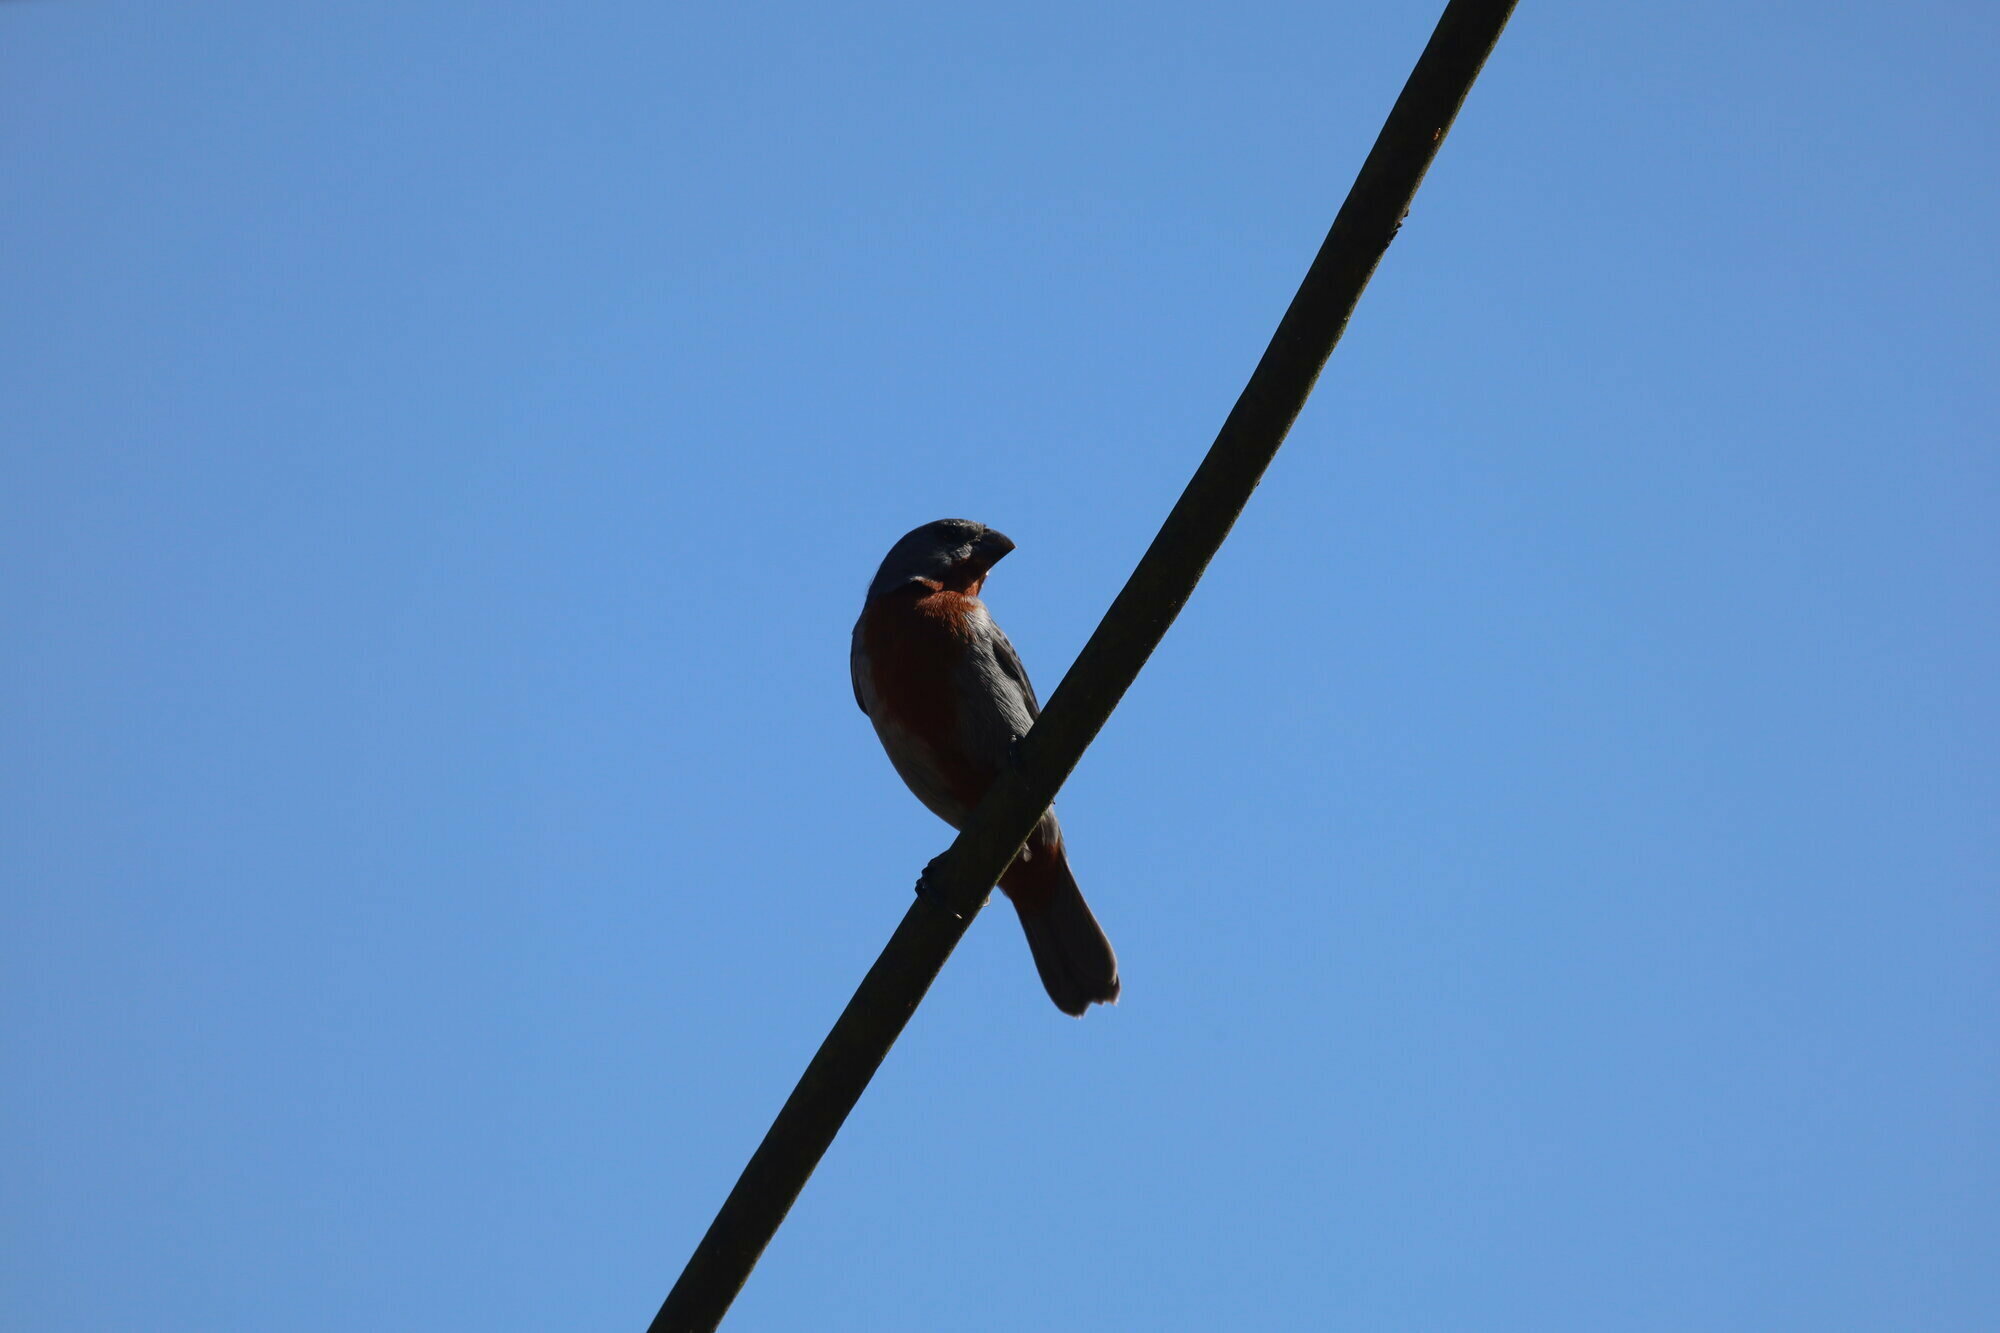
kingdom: Animalia
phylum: Chordata
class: Aves
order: Passeriformes
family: Thraupidae
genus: Sporophila
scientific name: Sporophila castaneiventris
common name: Chestnut-bellied seedeater
